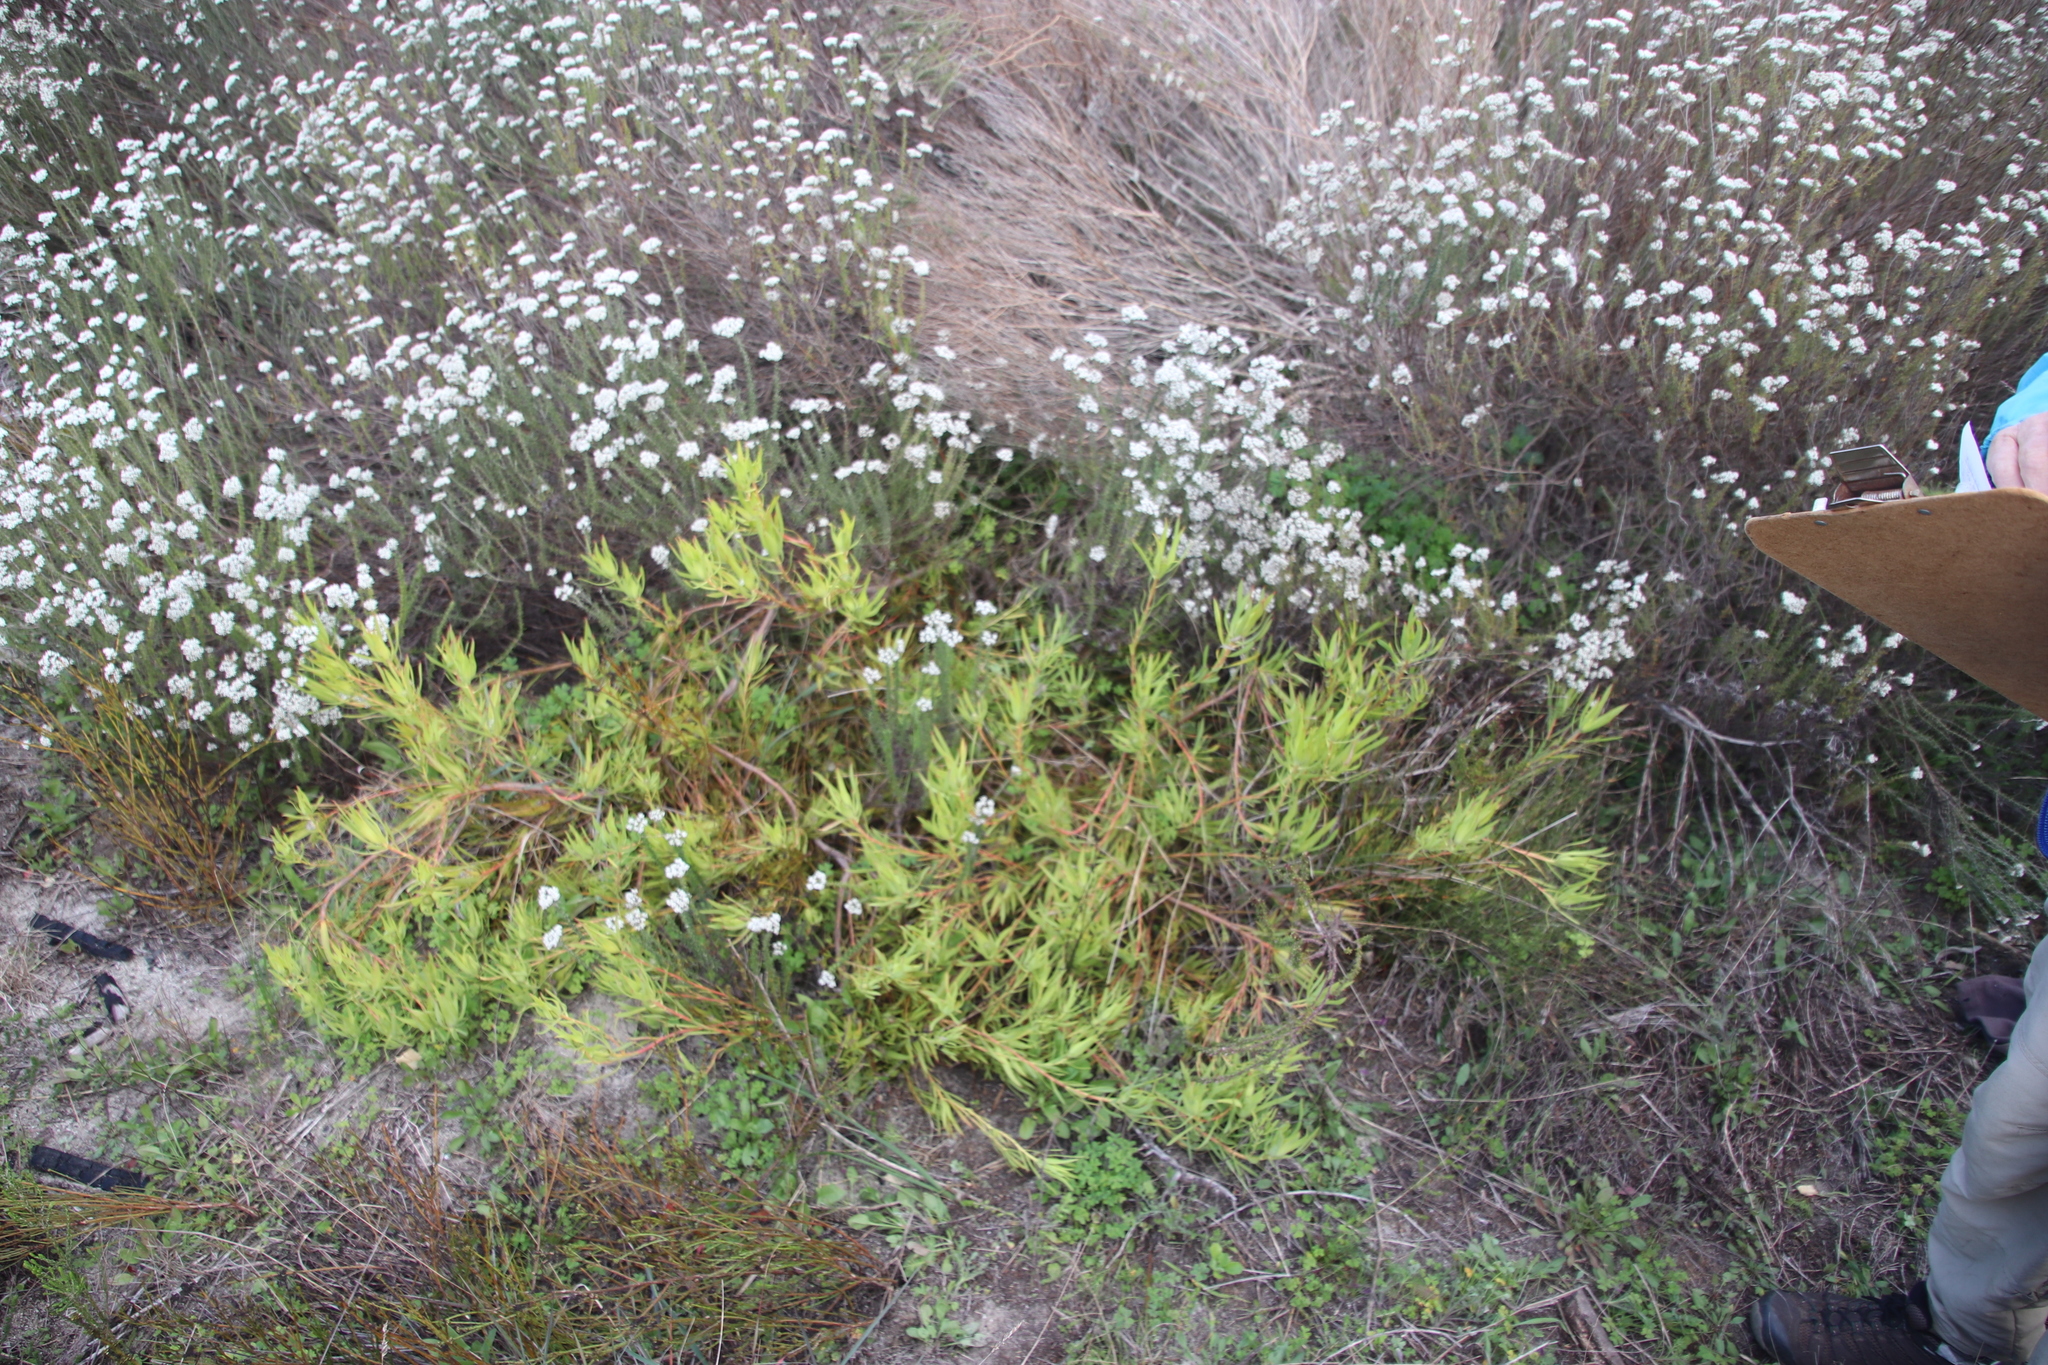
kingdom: Plantae
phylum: Tracheophyta
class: Magnoliopsida
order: Proteales
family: Proteaceae
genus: Leucadendron
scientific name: Leucadendron salignum
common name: Common sunshine conebush
